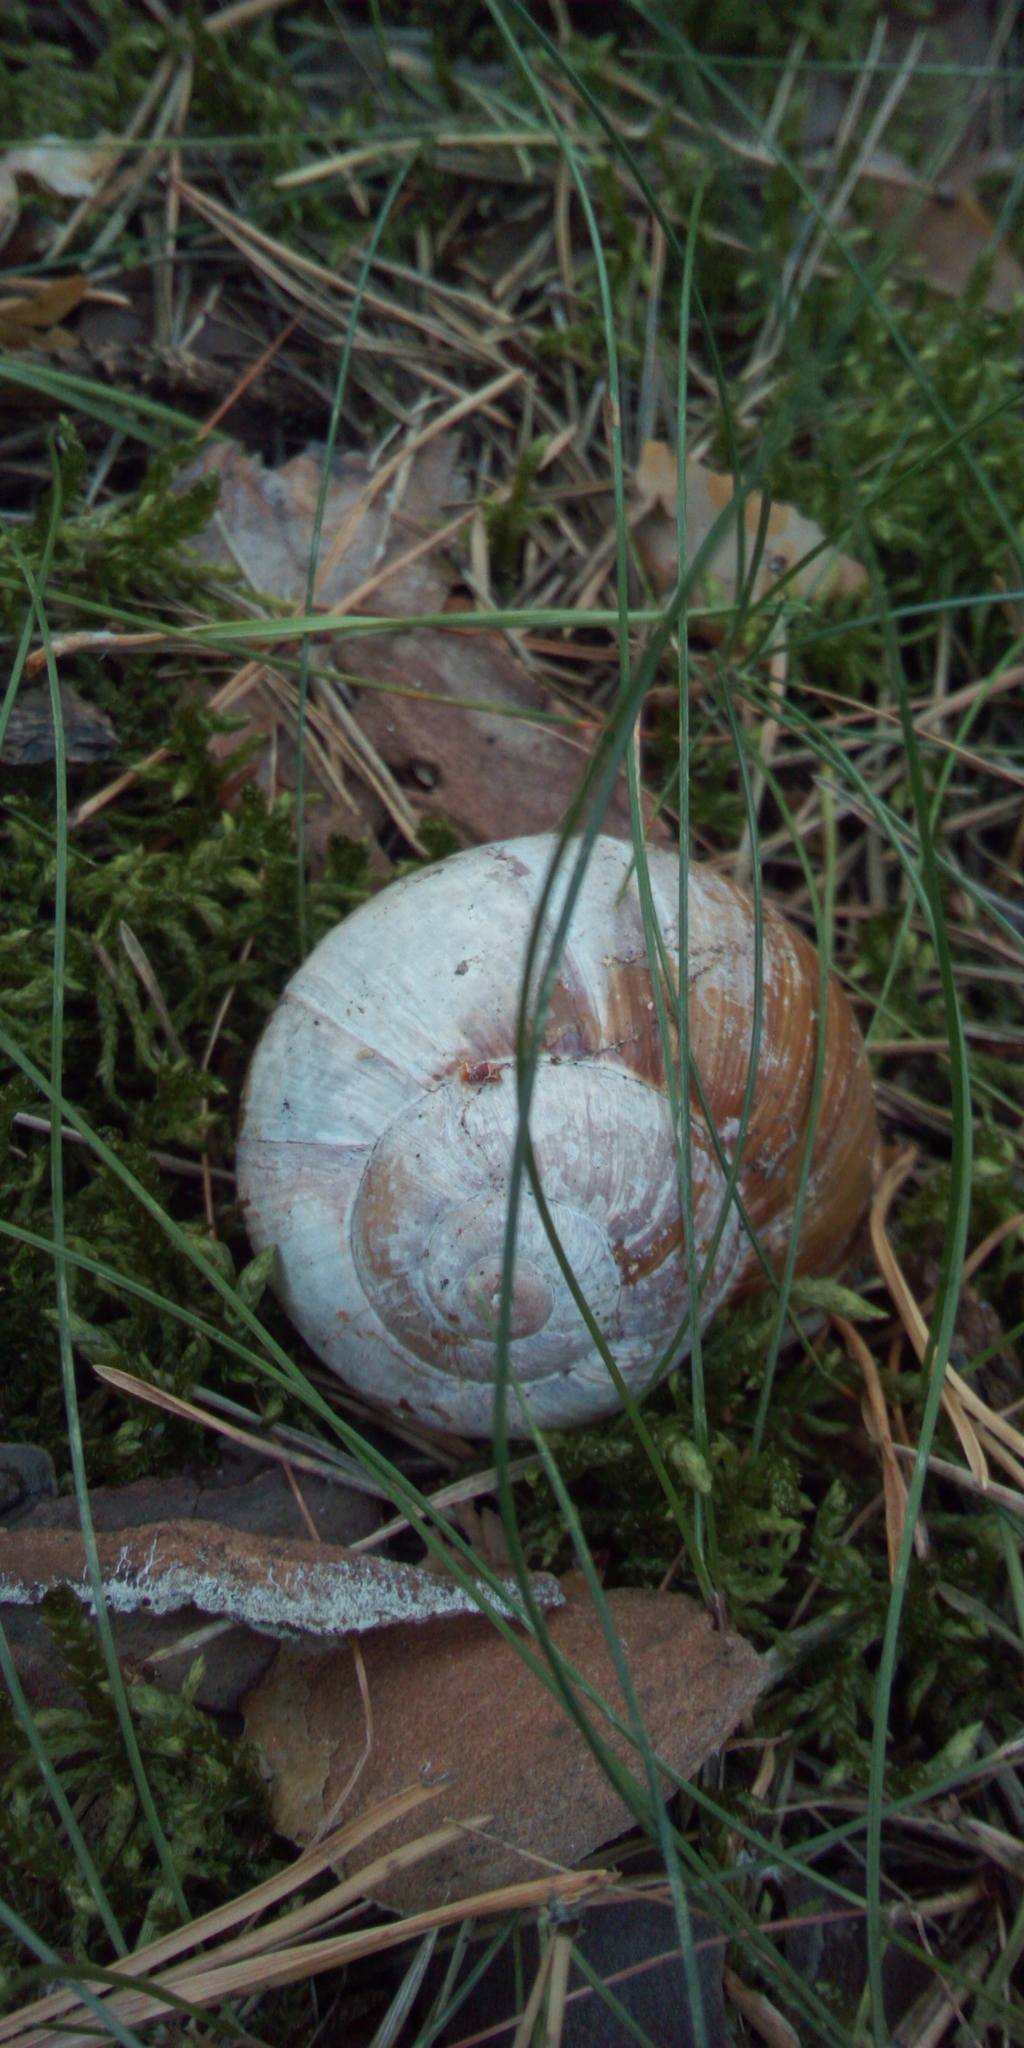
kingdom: Animalia
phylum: Mollusca
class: Gastropoda
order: Stylommatophora
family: Helicidae
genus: Helix
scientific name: Helix pomatia
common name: Roman snail
